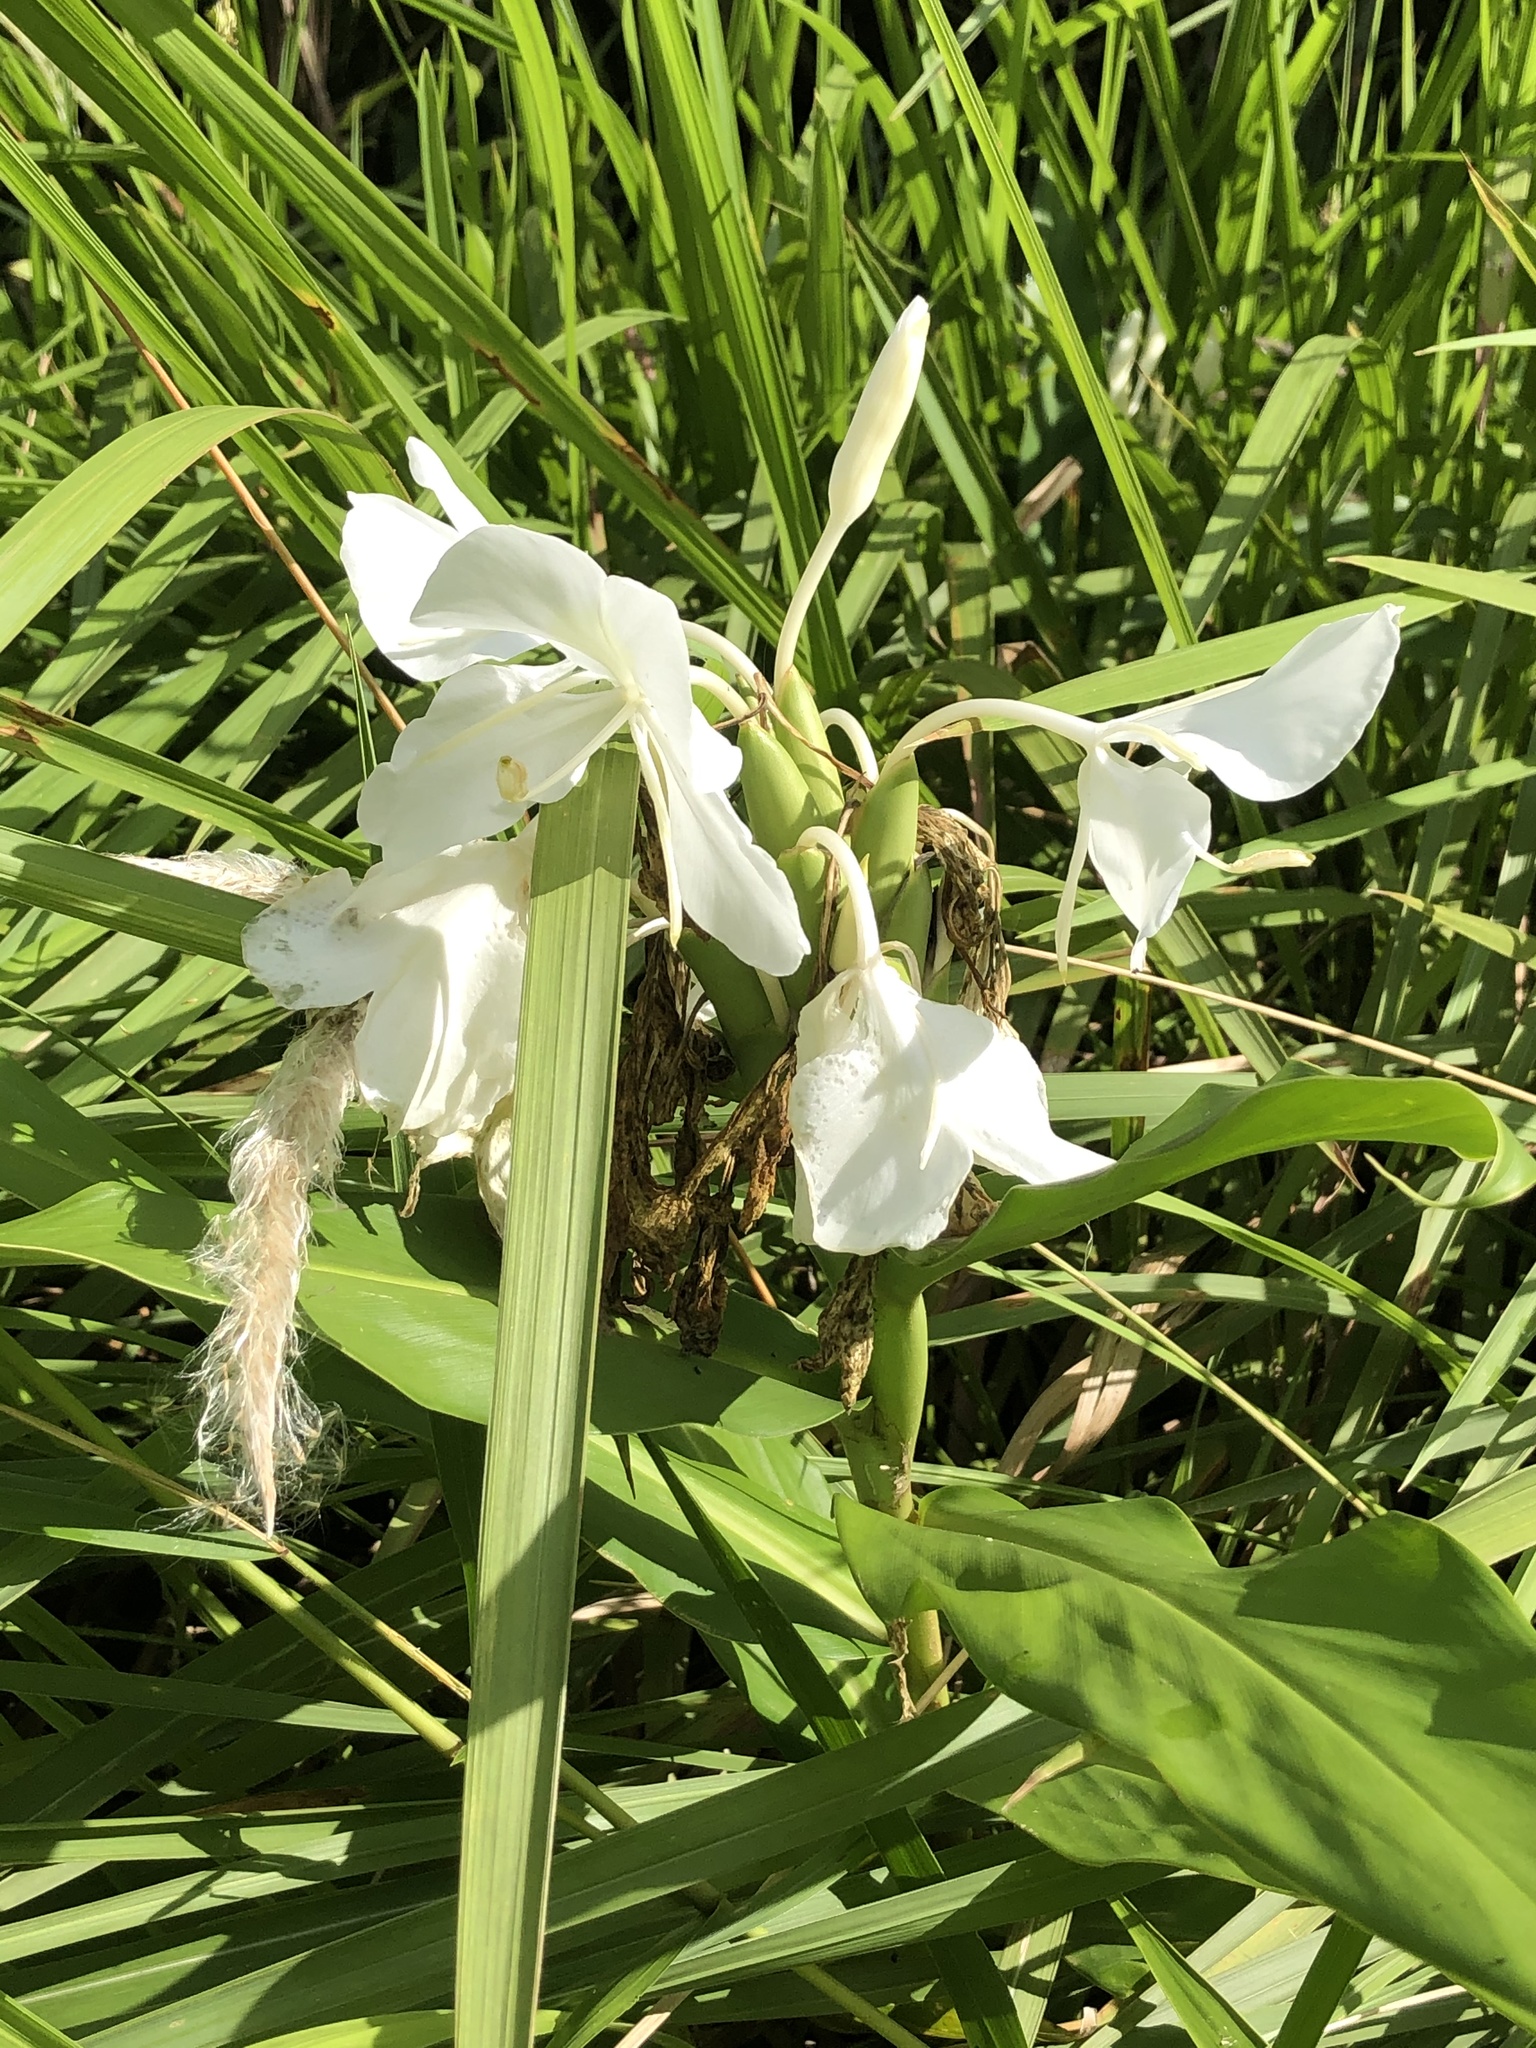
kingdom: Plantae
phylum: Tracheophyta
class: Liliopsida
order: Zingiberales
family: Zingiberaceae
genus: Hedychium
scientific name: Hedychium coronarium
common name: White garland-lily
